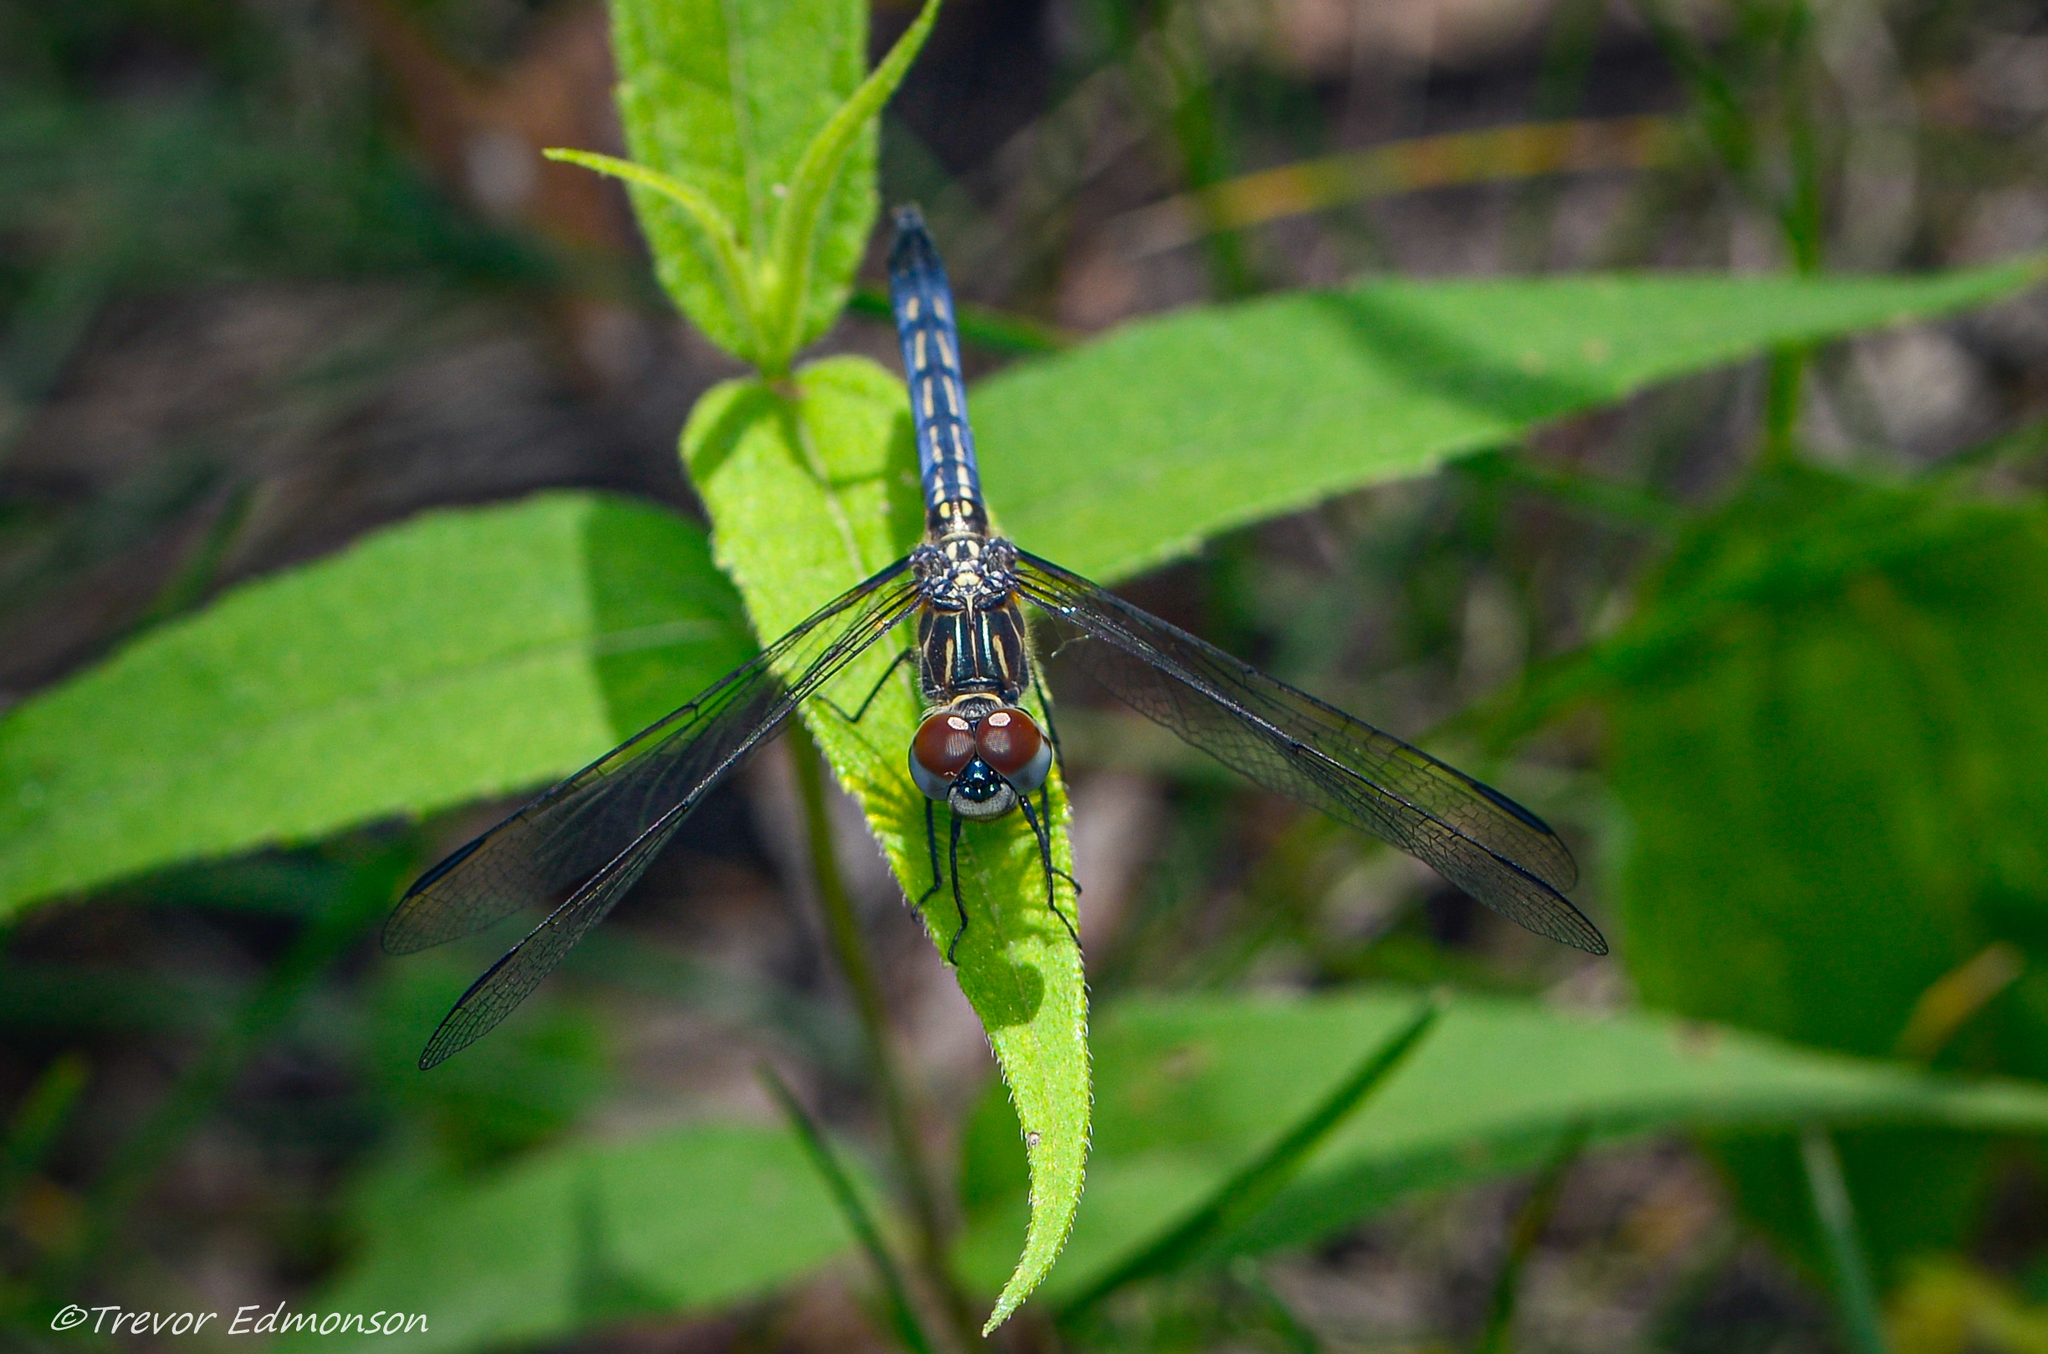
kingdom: Animalia
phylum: Arthropoda
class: Insecta
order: Odonata
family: Libellulidae
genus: Pachydiplax
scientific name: Pachydiplax longipennis
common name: Blue dasher
